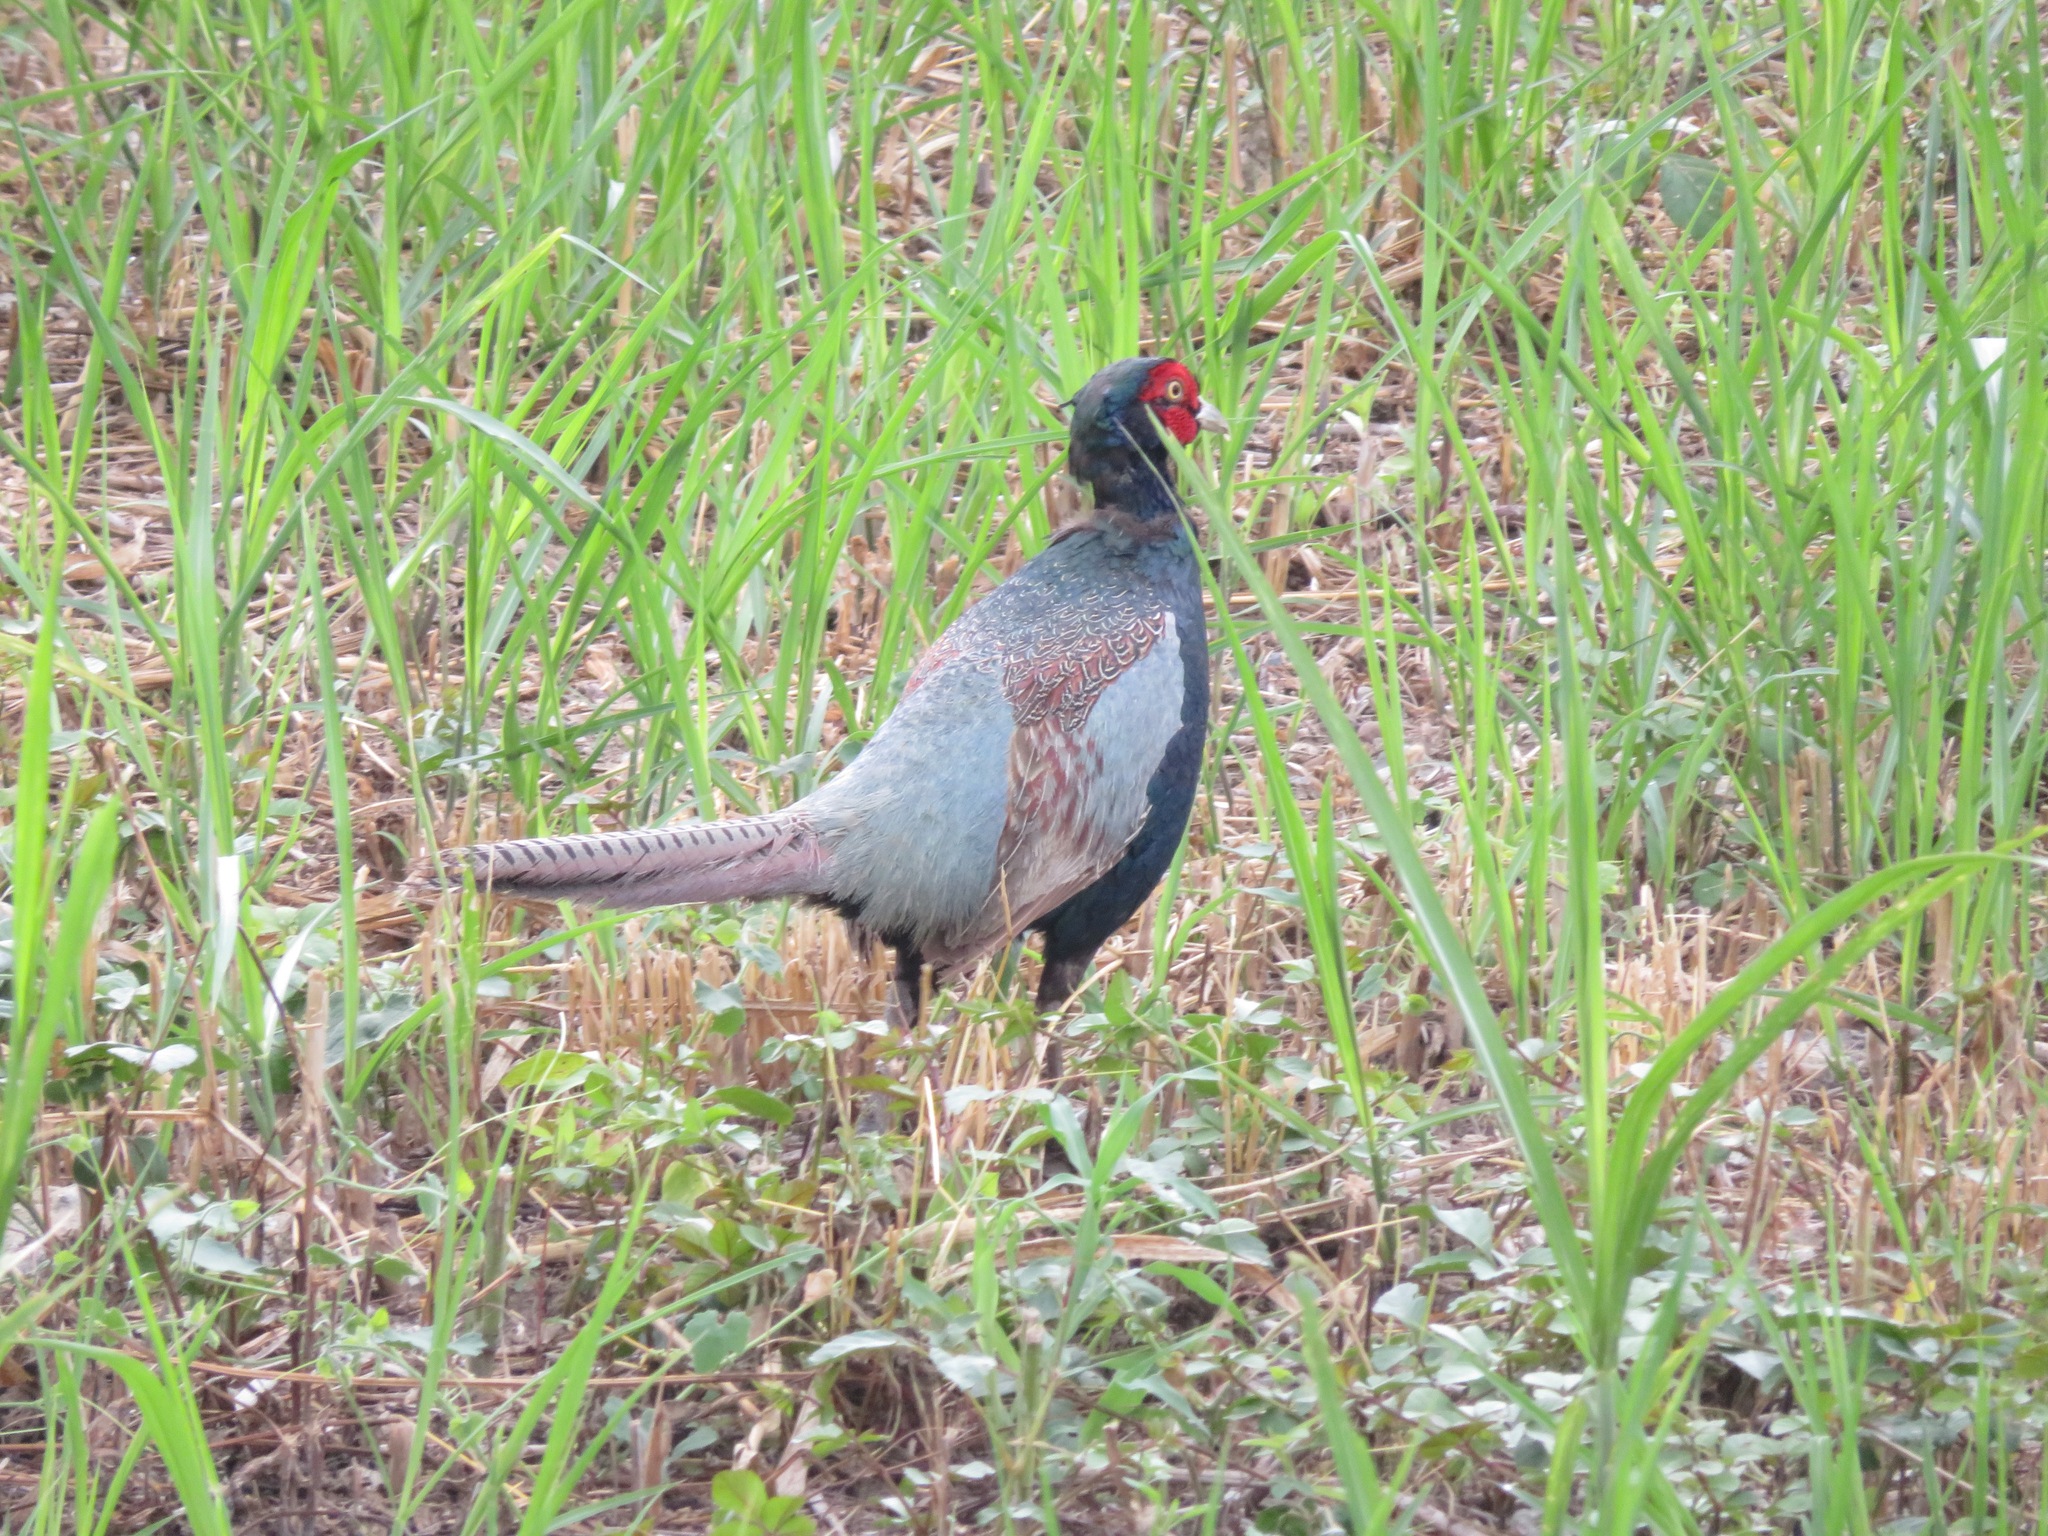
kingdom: Animalia
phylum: Chordata
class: Aves
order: Galliformes
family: Phasianidae
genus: Phasianus
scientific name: Phasianus versicolor
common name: Green pheasant
